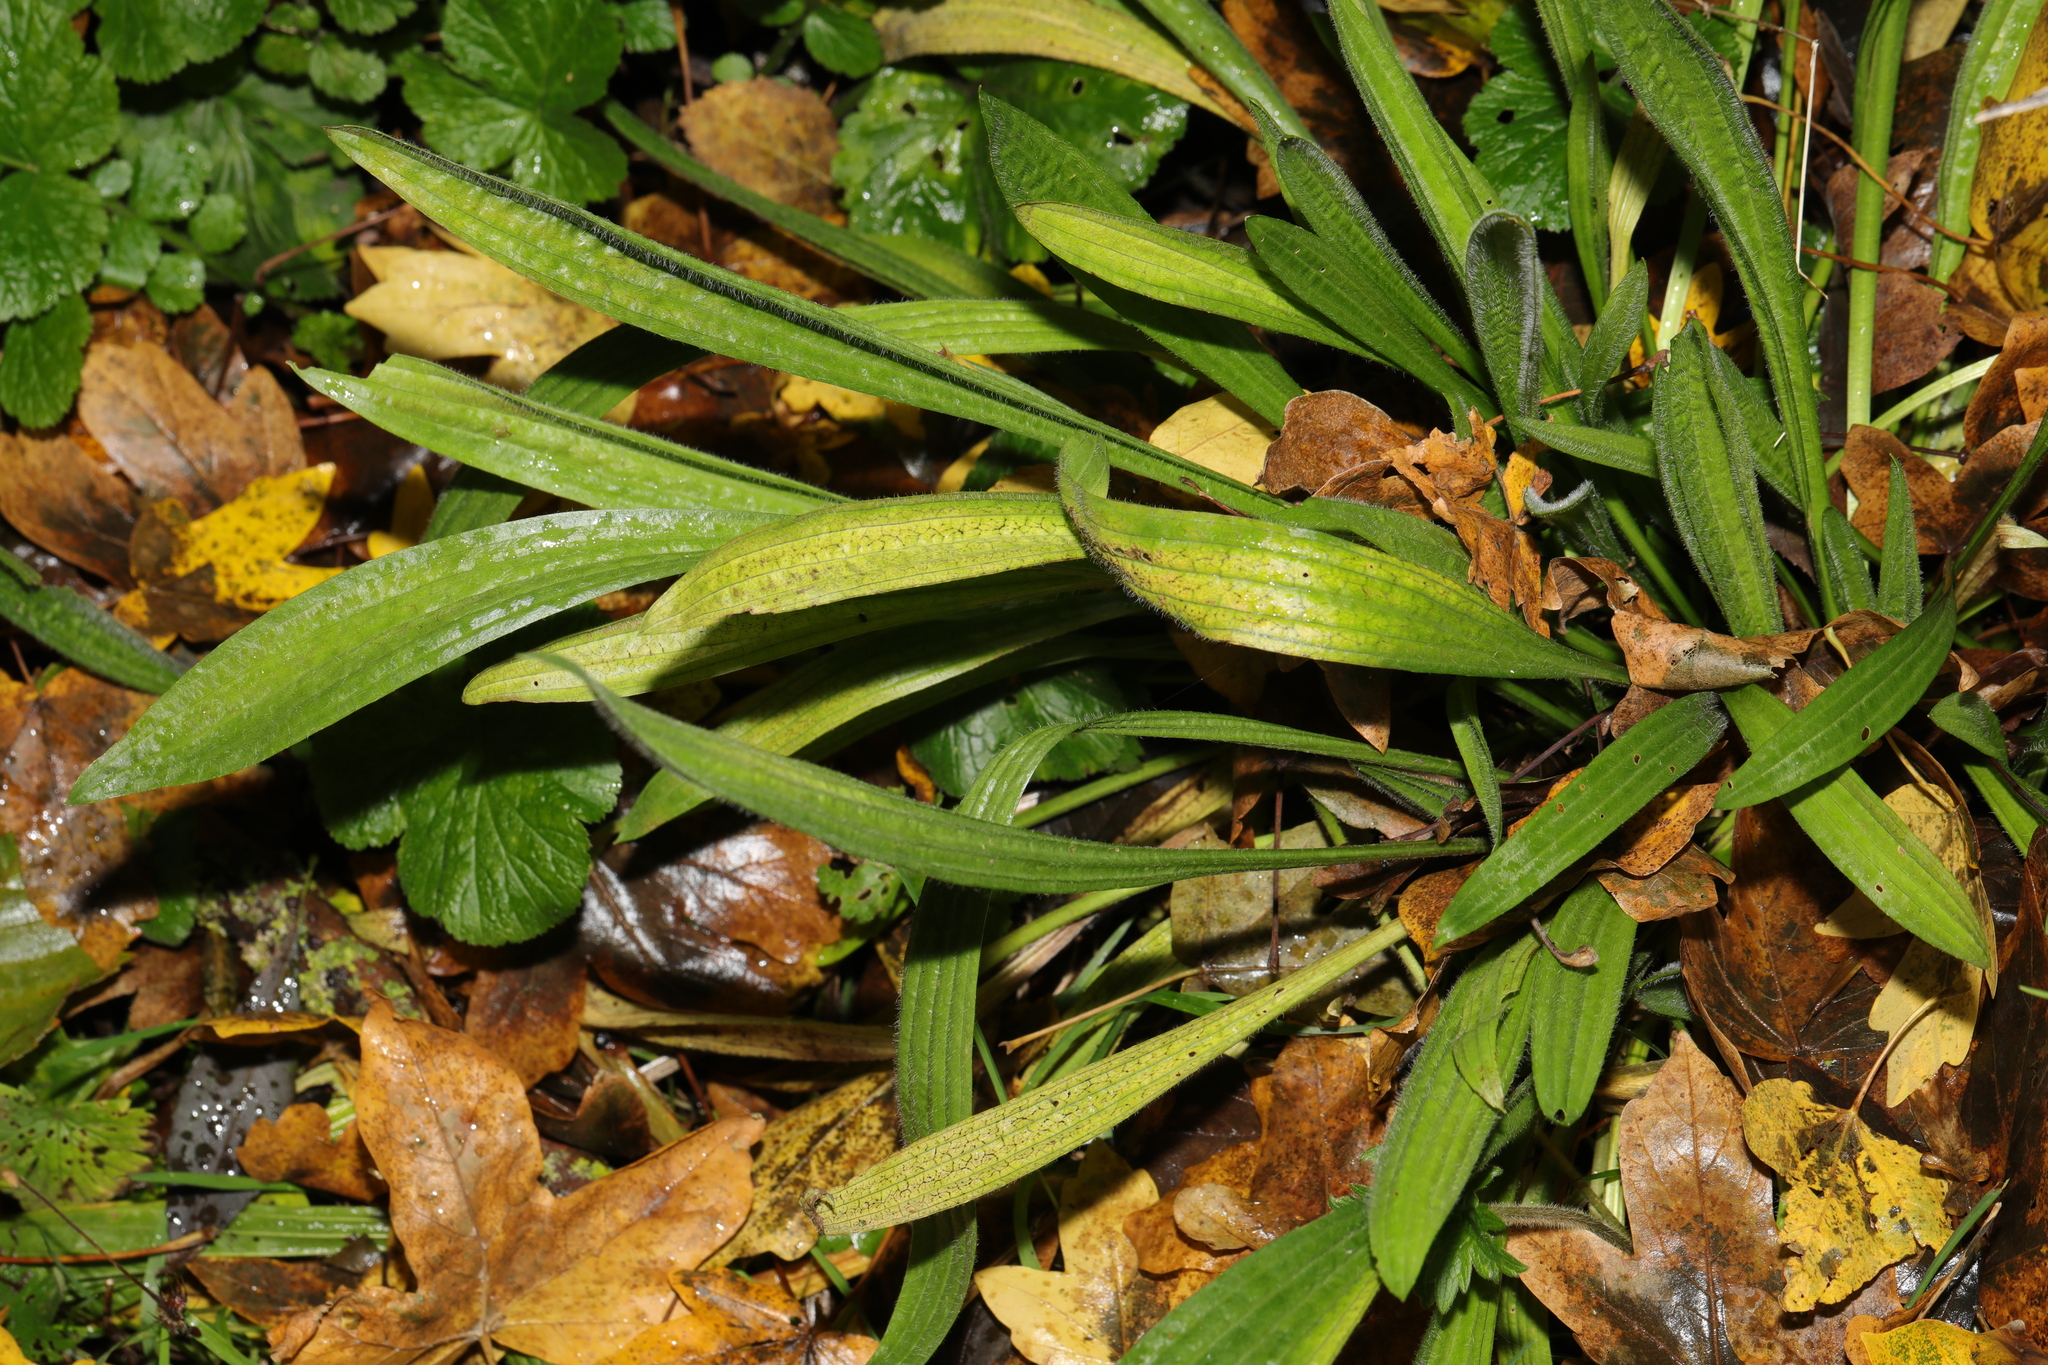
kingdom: Plantae
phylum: Tracheophyta
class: Magnoliopsida
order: Lamiales
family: Plantaginaceae
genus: Plantago
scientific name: Plantago lanceolata
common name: Ribwort plantain
